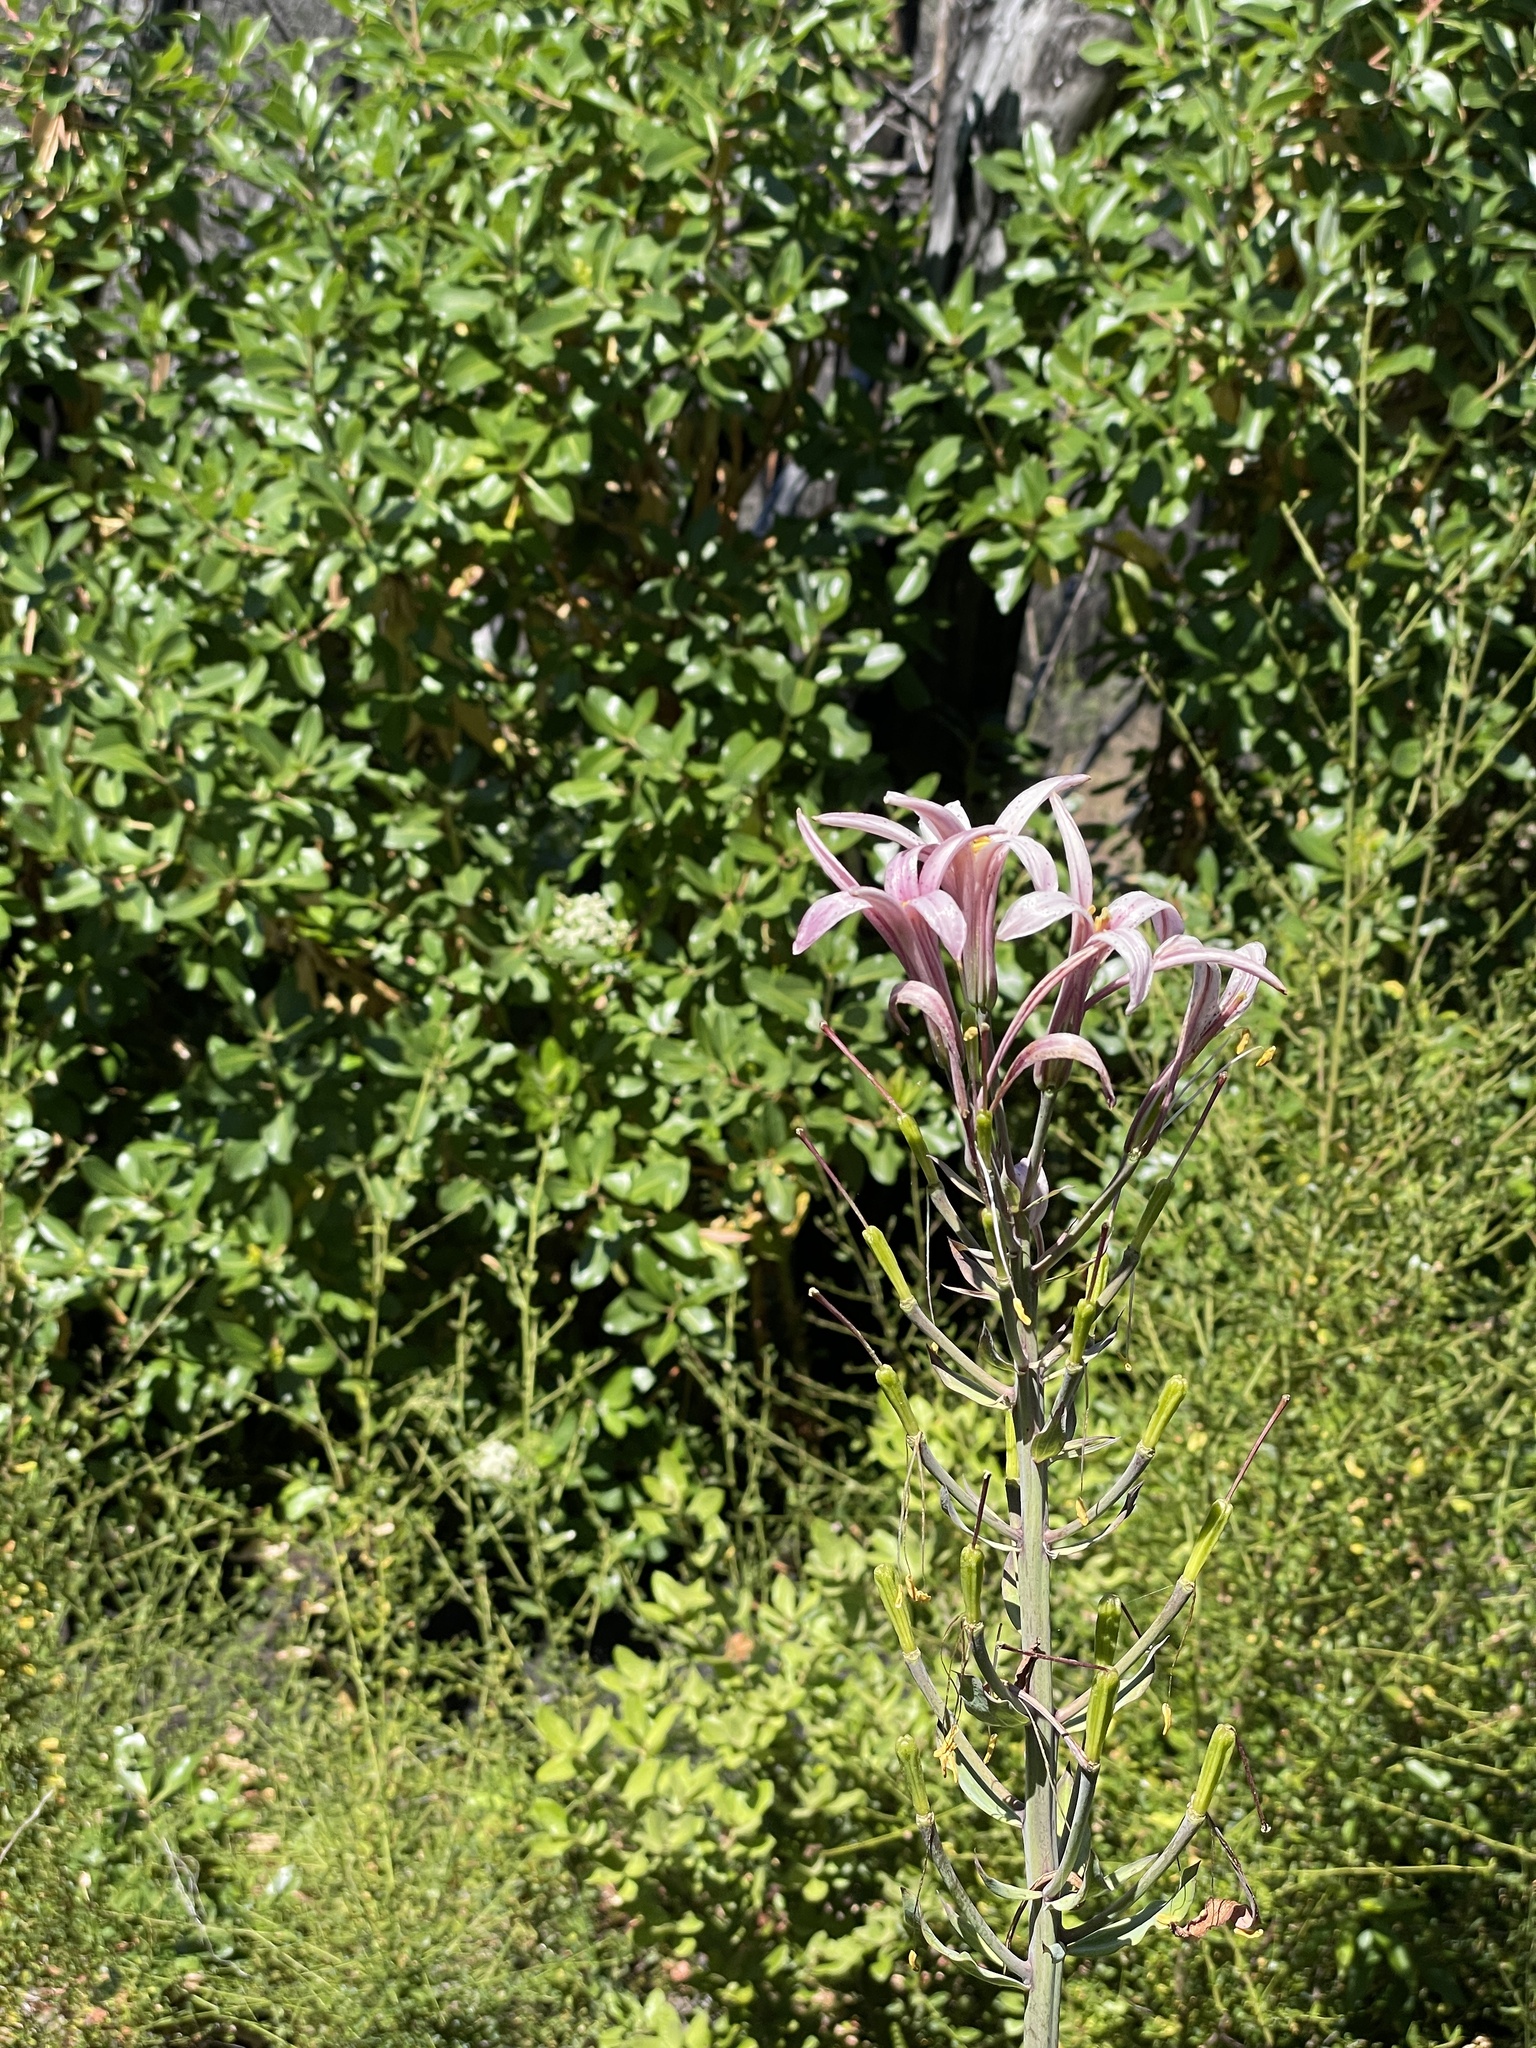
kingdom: Plantae
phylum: Tracheophyta
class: Liliopsida
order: Liliales
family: Liliaceae
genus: Lilium
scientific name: Lilium rubescens
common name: Chamise lily
